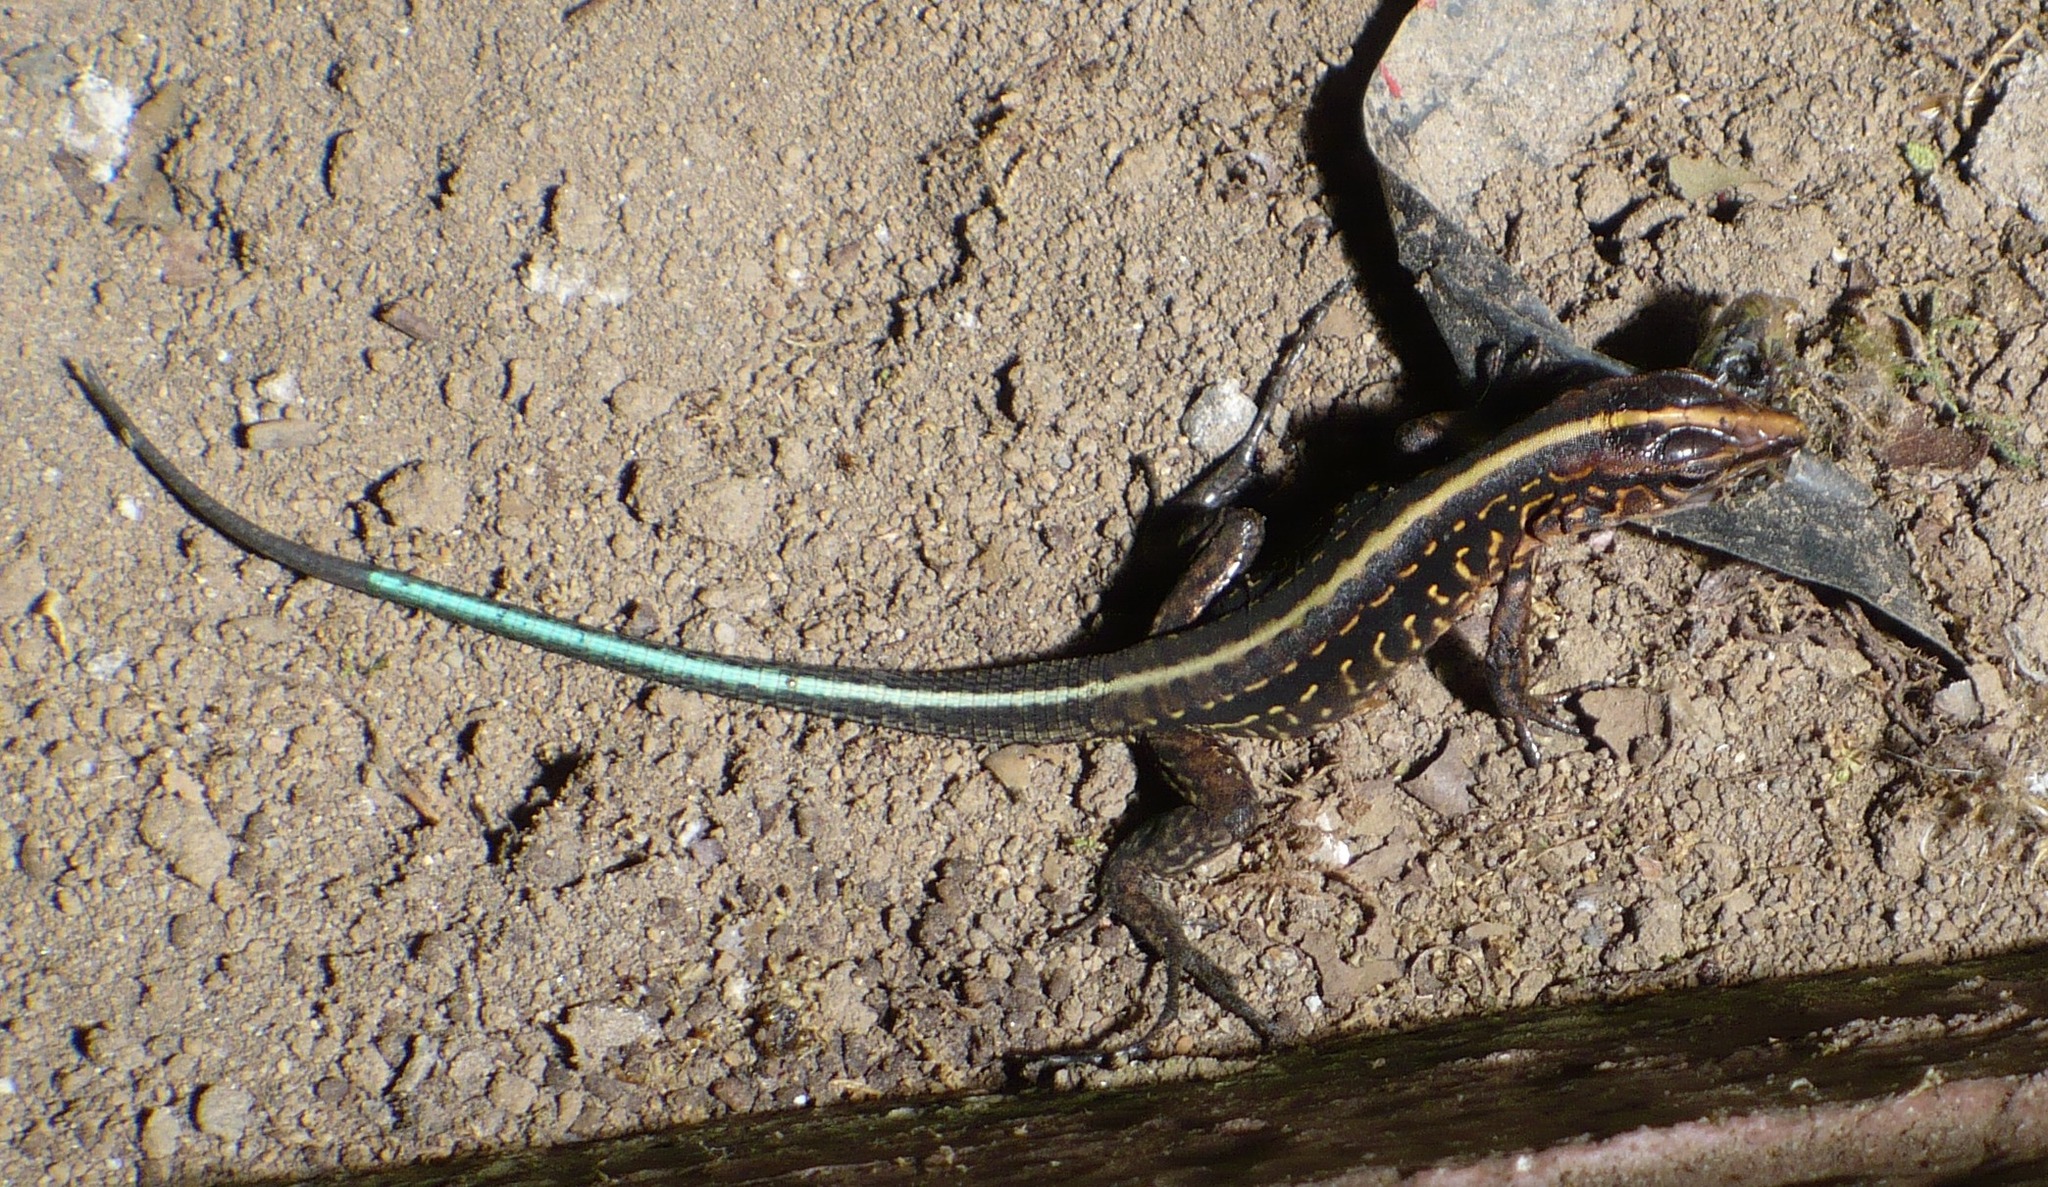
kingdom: Animalia
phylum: Chordata
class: Squamata
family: Teiidae
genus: Holcosus
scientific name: Holcosus festivus
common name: Middle american ameiva
